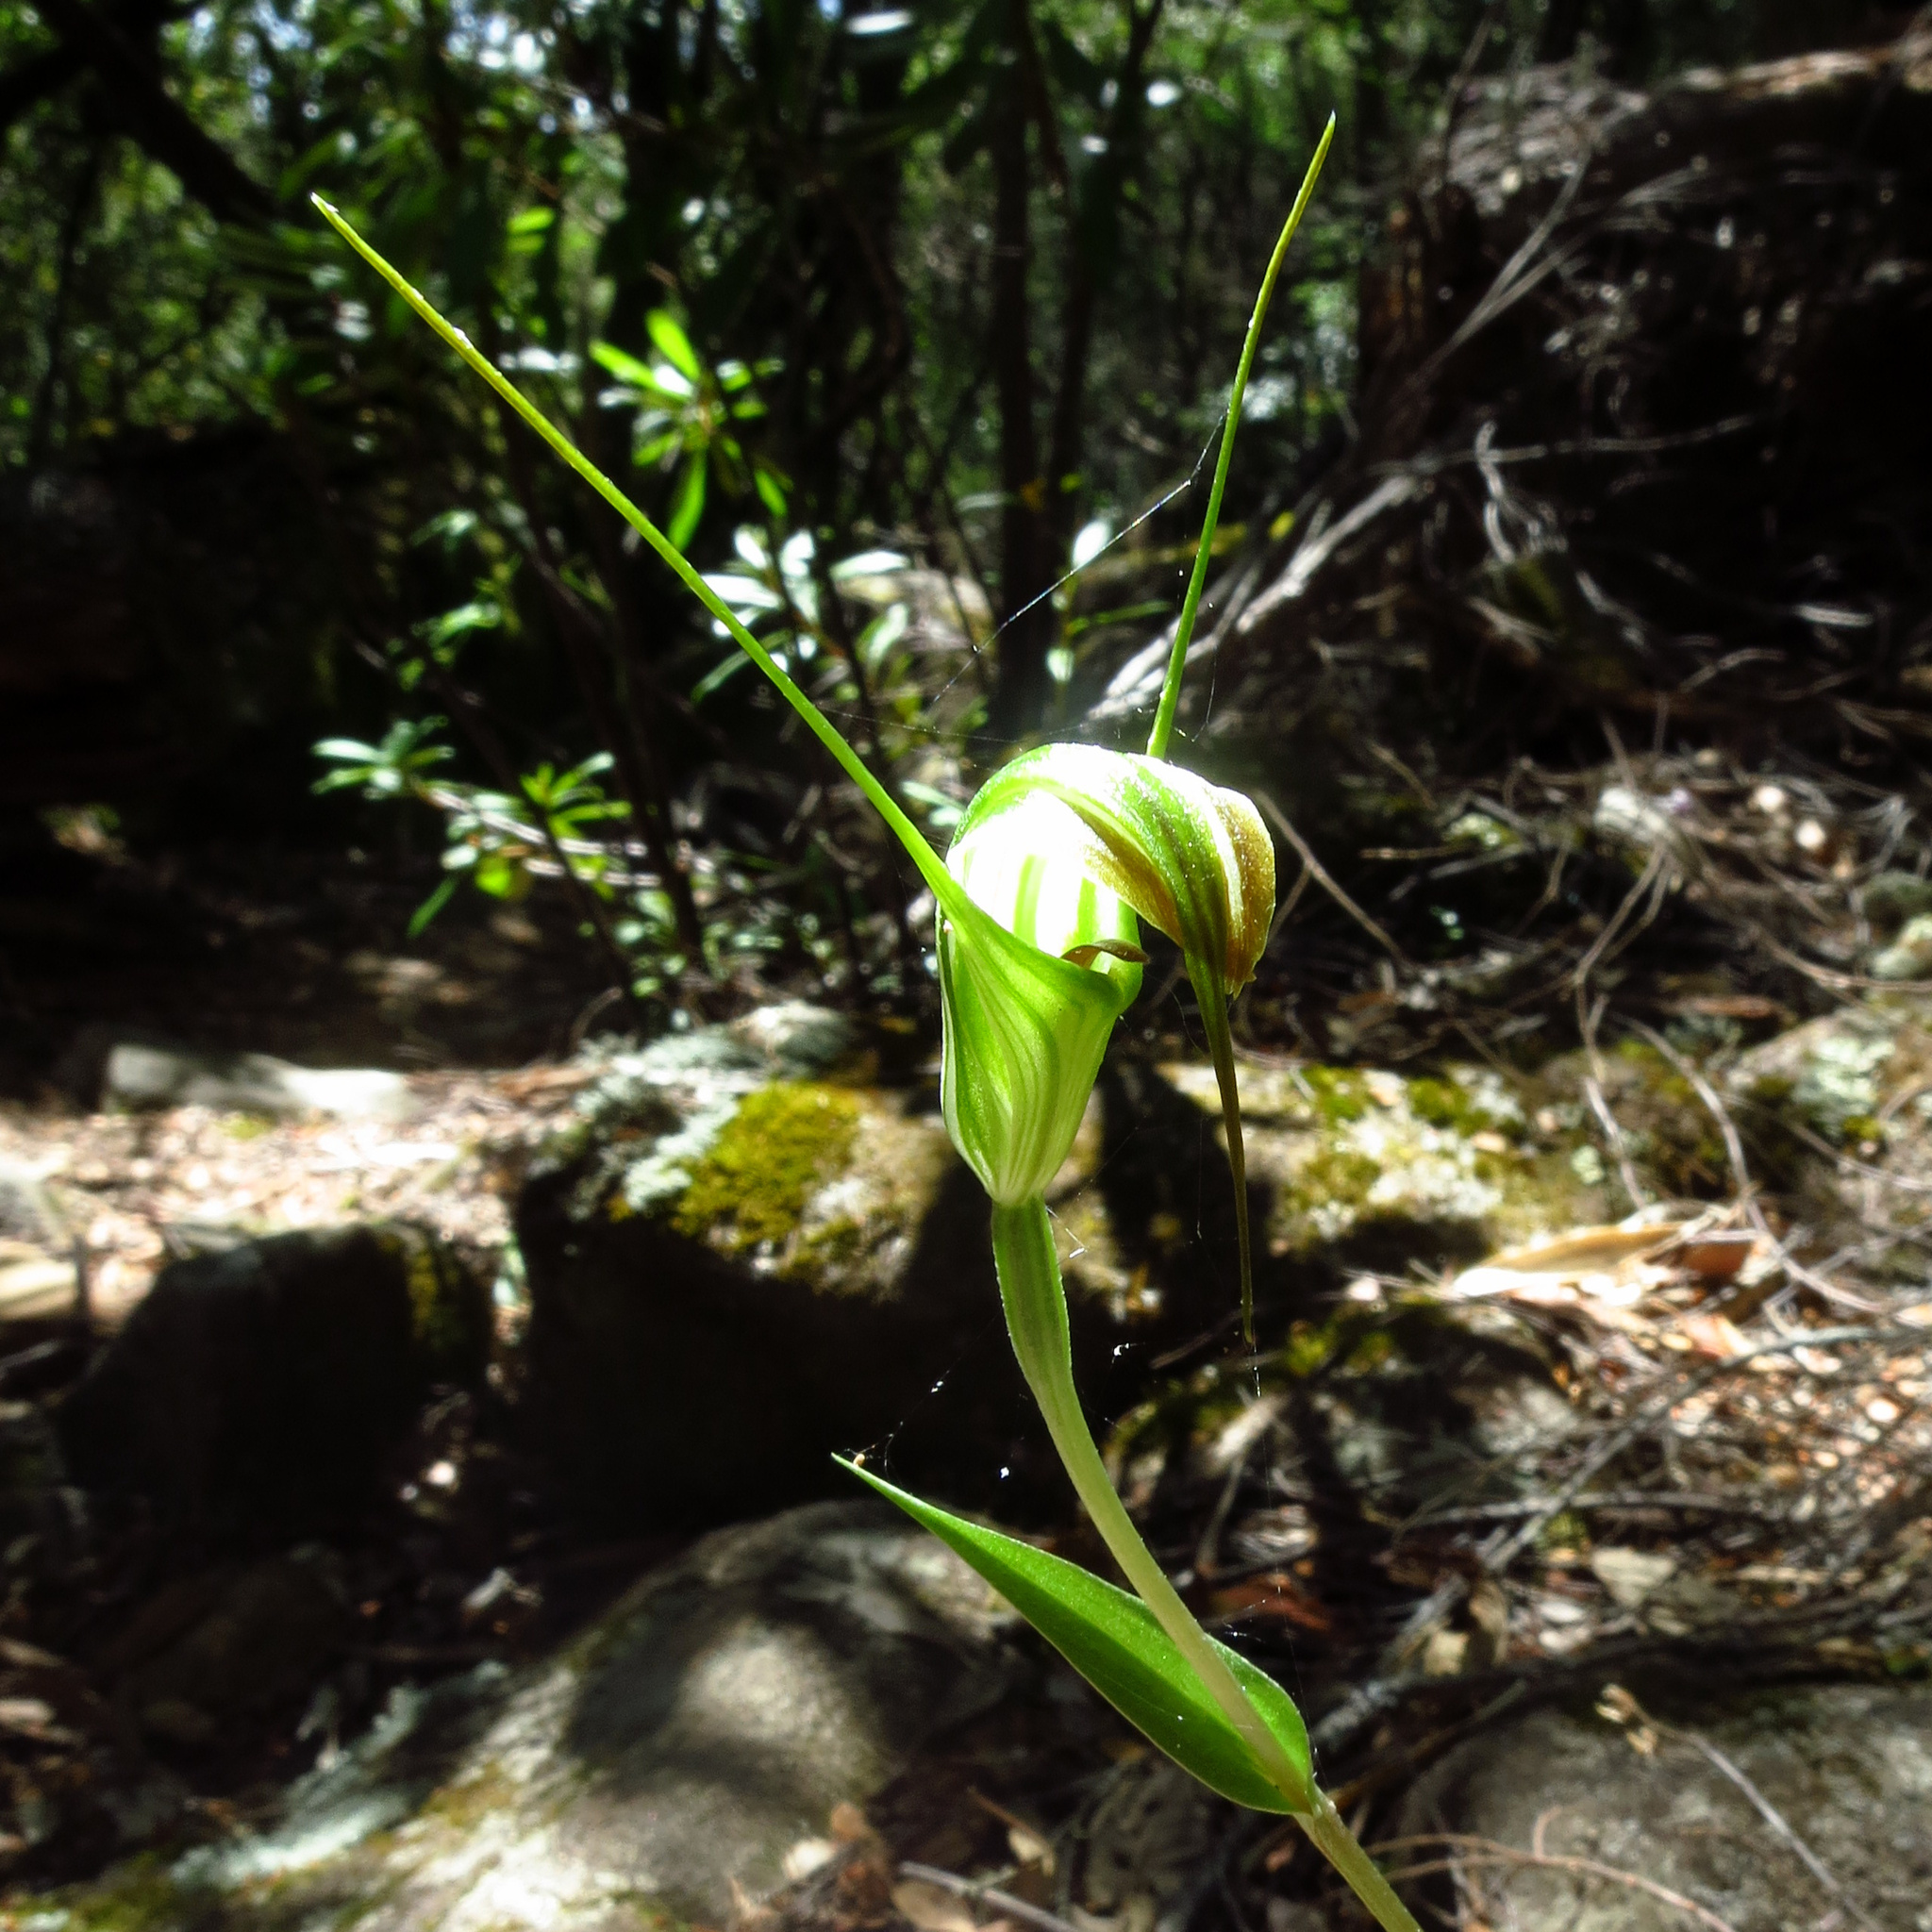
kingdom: Plantae
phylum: Tracheophyta
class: Liliopsida
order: Asparagales
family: Orchidaceae
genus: Pterostylis
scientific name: Pterostylis decurva
